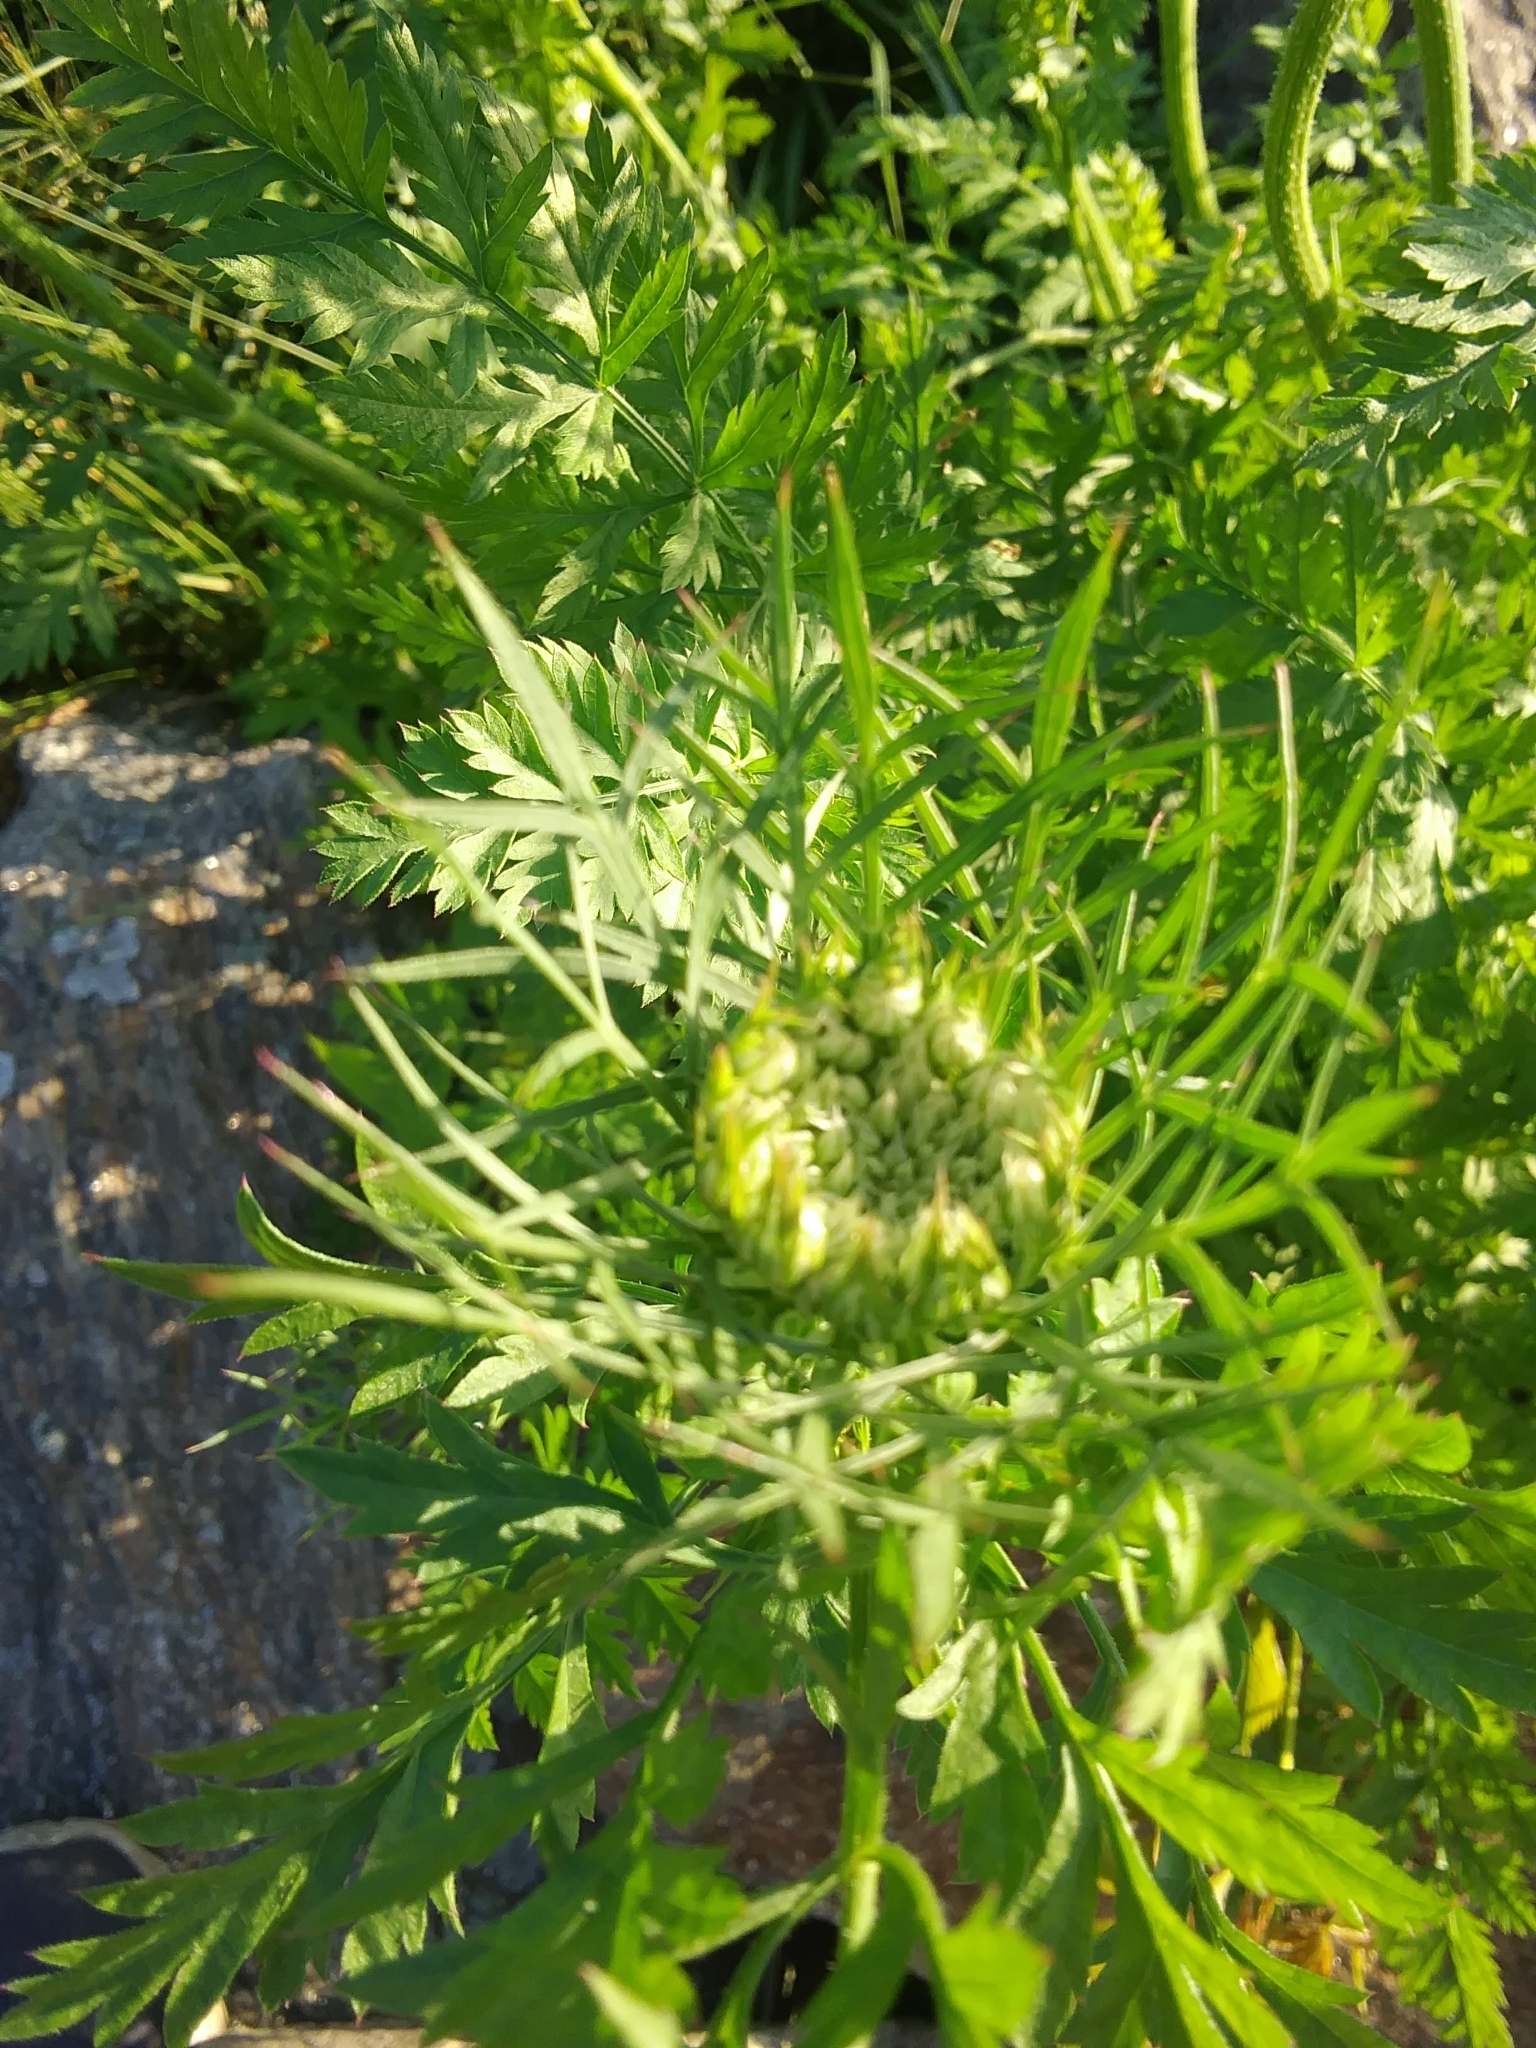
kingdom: Plantae
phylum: Tracheophyta
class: Magnoliopsida
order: Apiales
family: Apiaceae
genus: Daucus
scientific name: Daucus carota
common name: Wild carrot
